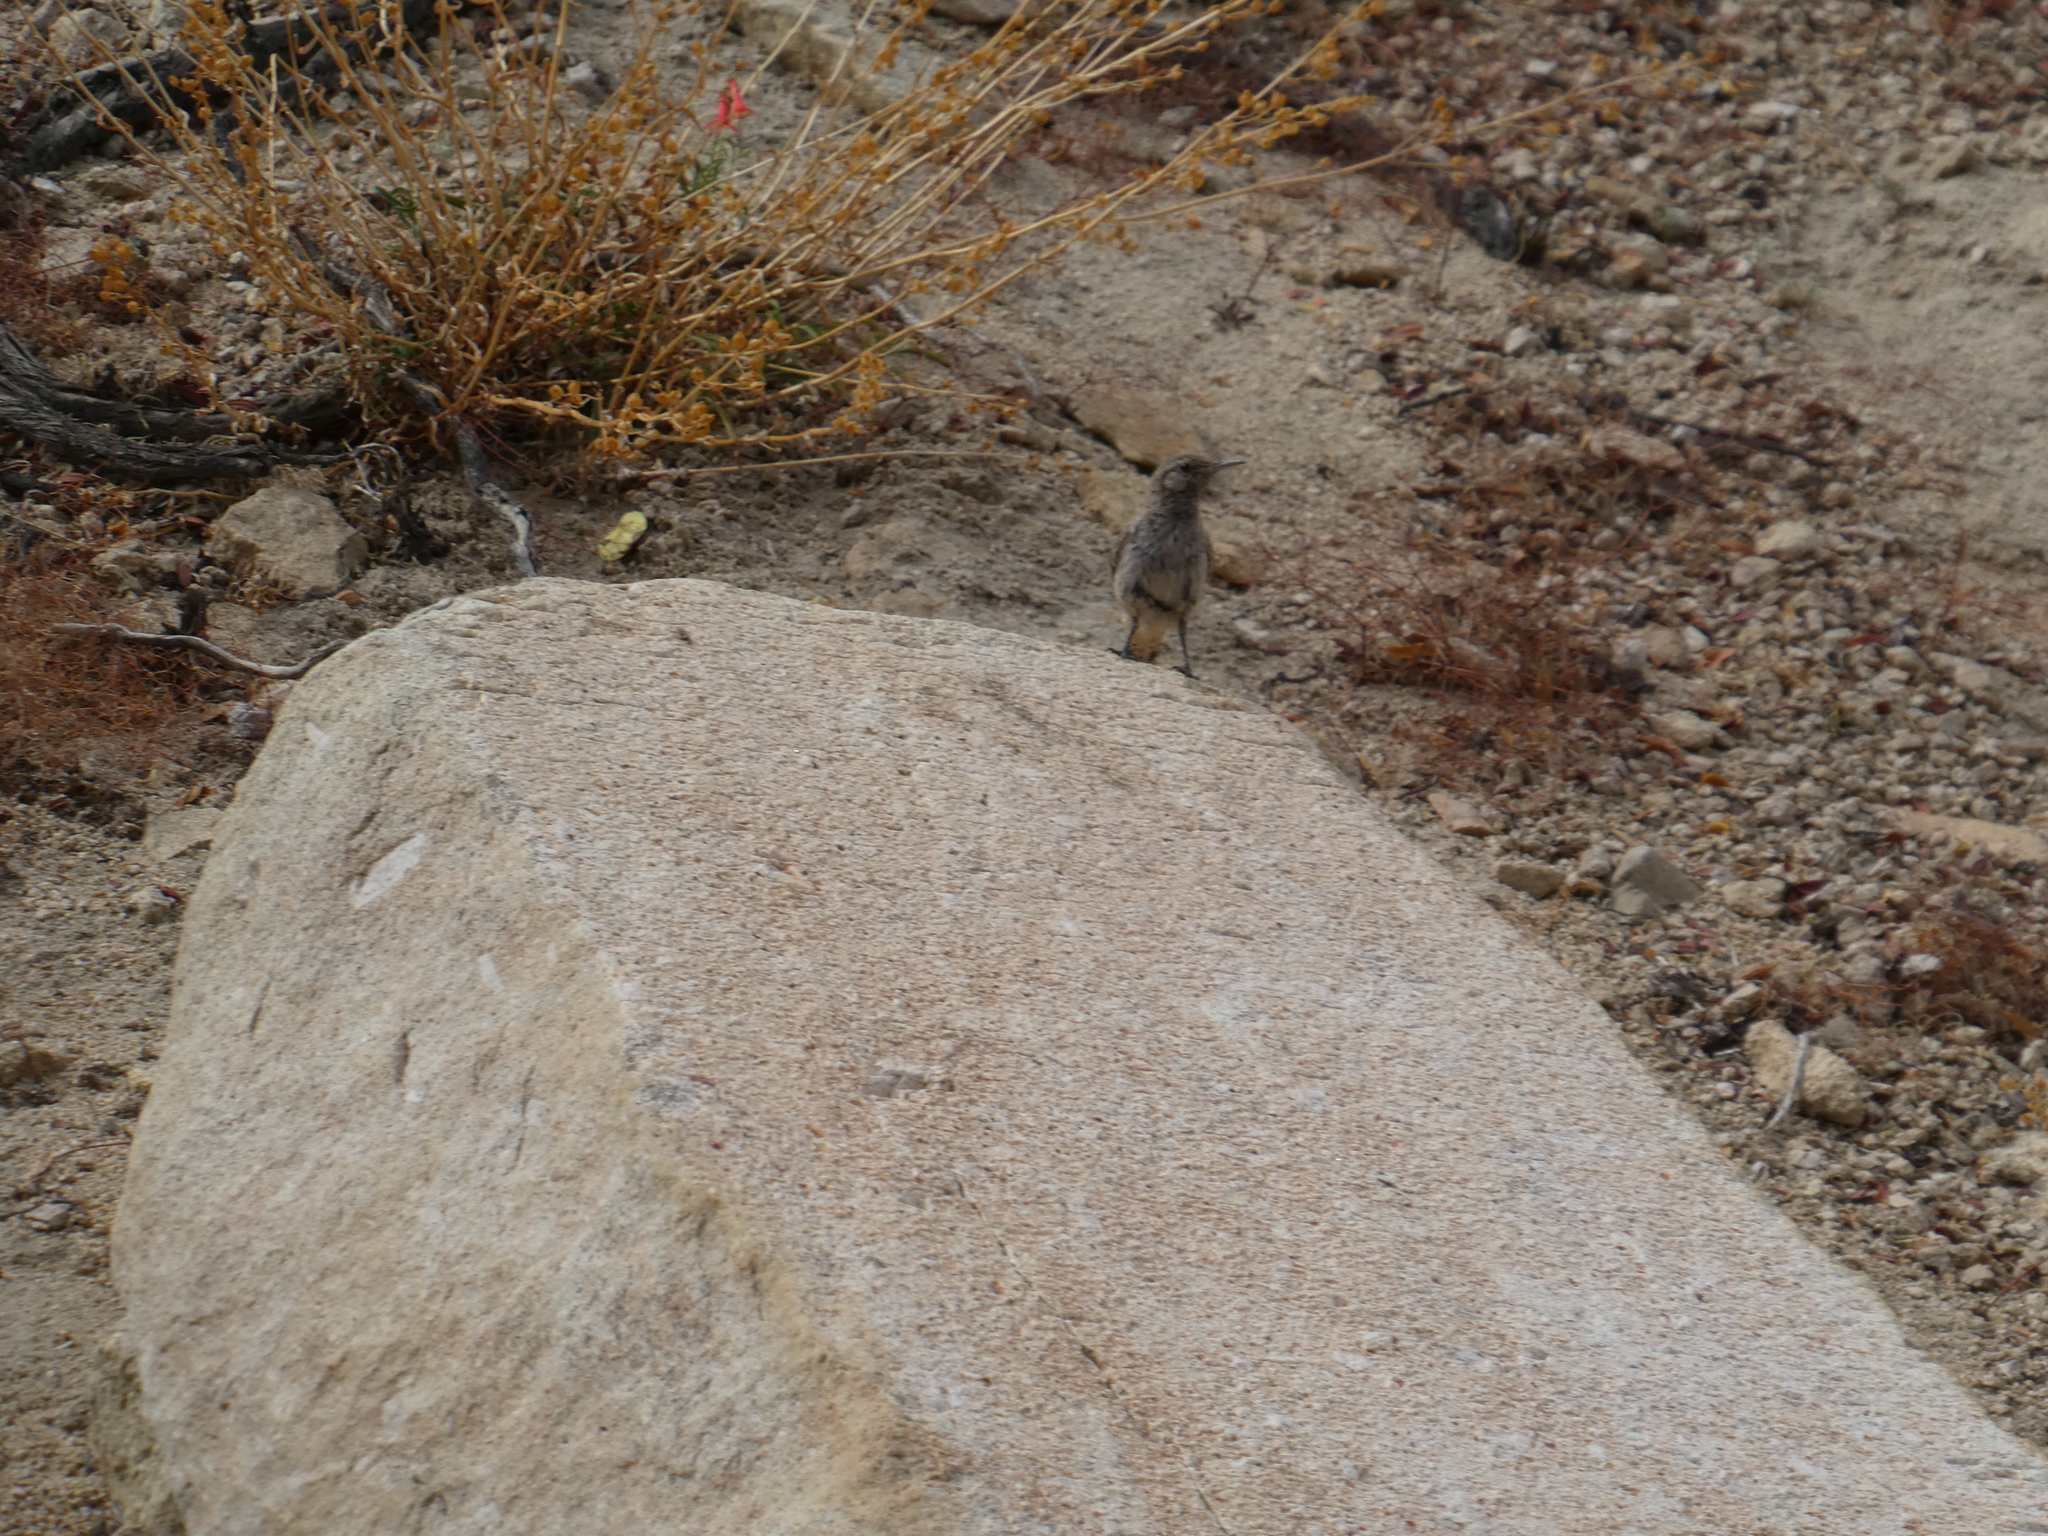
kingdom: Animalia
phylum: Chordata
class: Aves
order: Passeriformes
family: Troglodytidae
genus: Salpinctes
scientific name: Salpinctes obsoletus
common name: Rock wren
